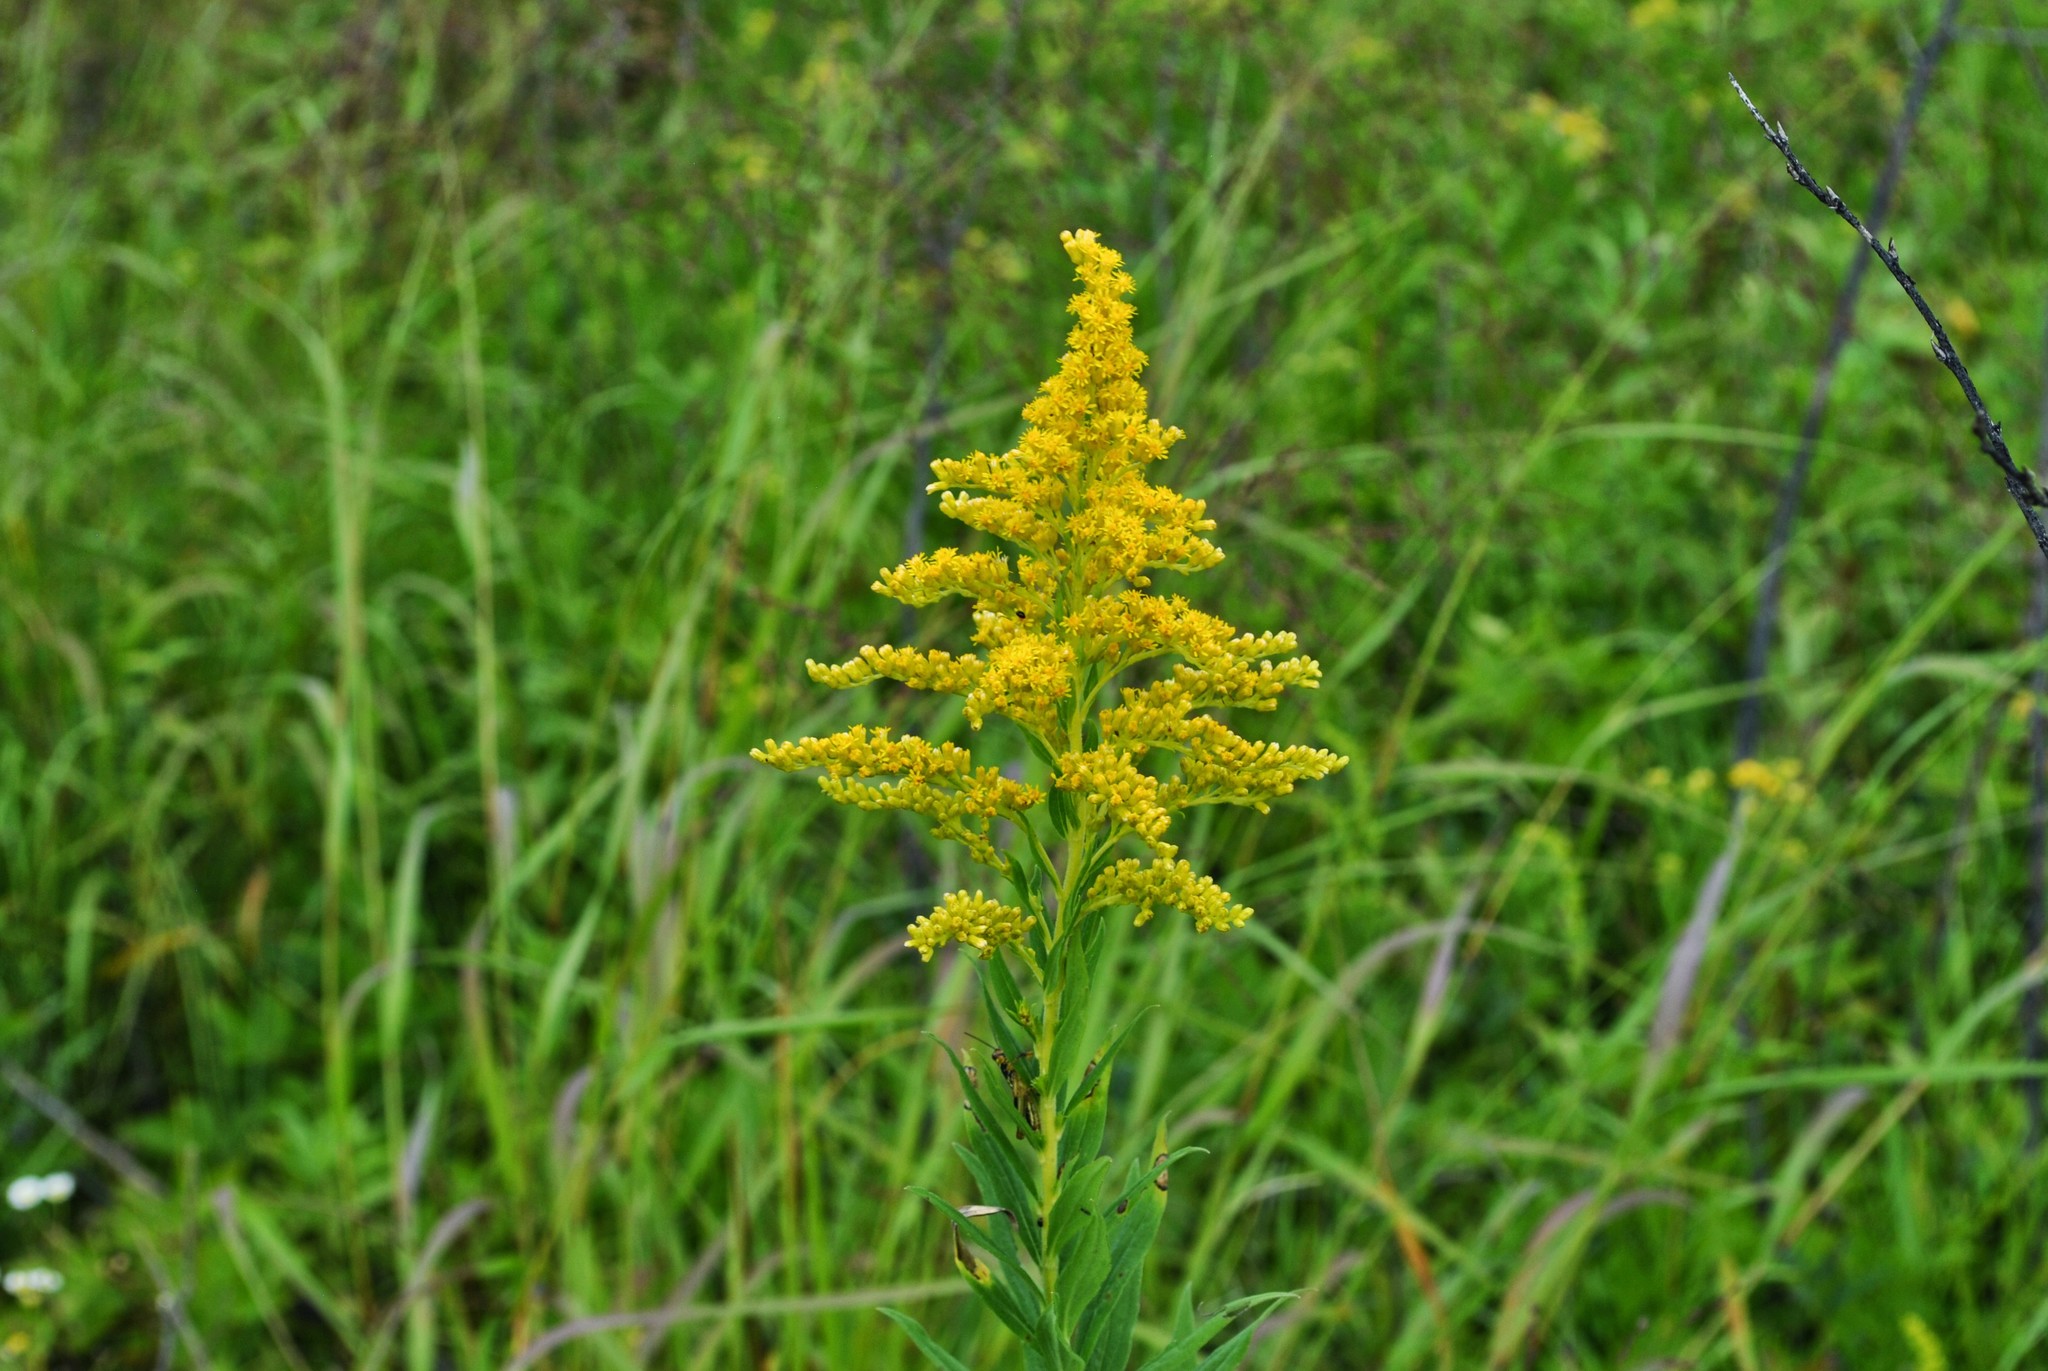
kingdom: Plantae
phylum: Tracheophyta
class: Magnoliopsida
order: Asterales
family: Asteraceae
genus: Solidago
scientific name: Solidago canadensis
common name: Canada goldenrod
